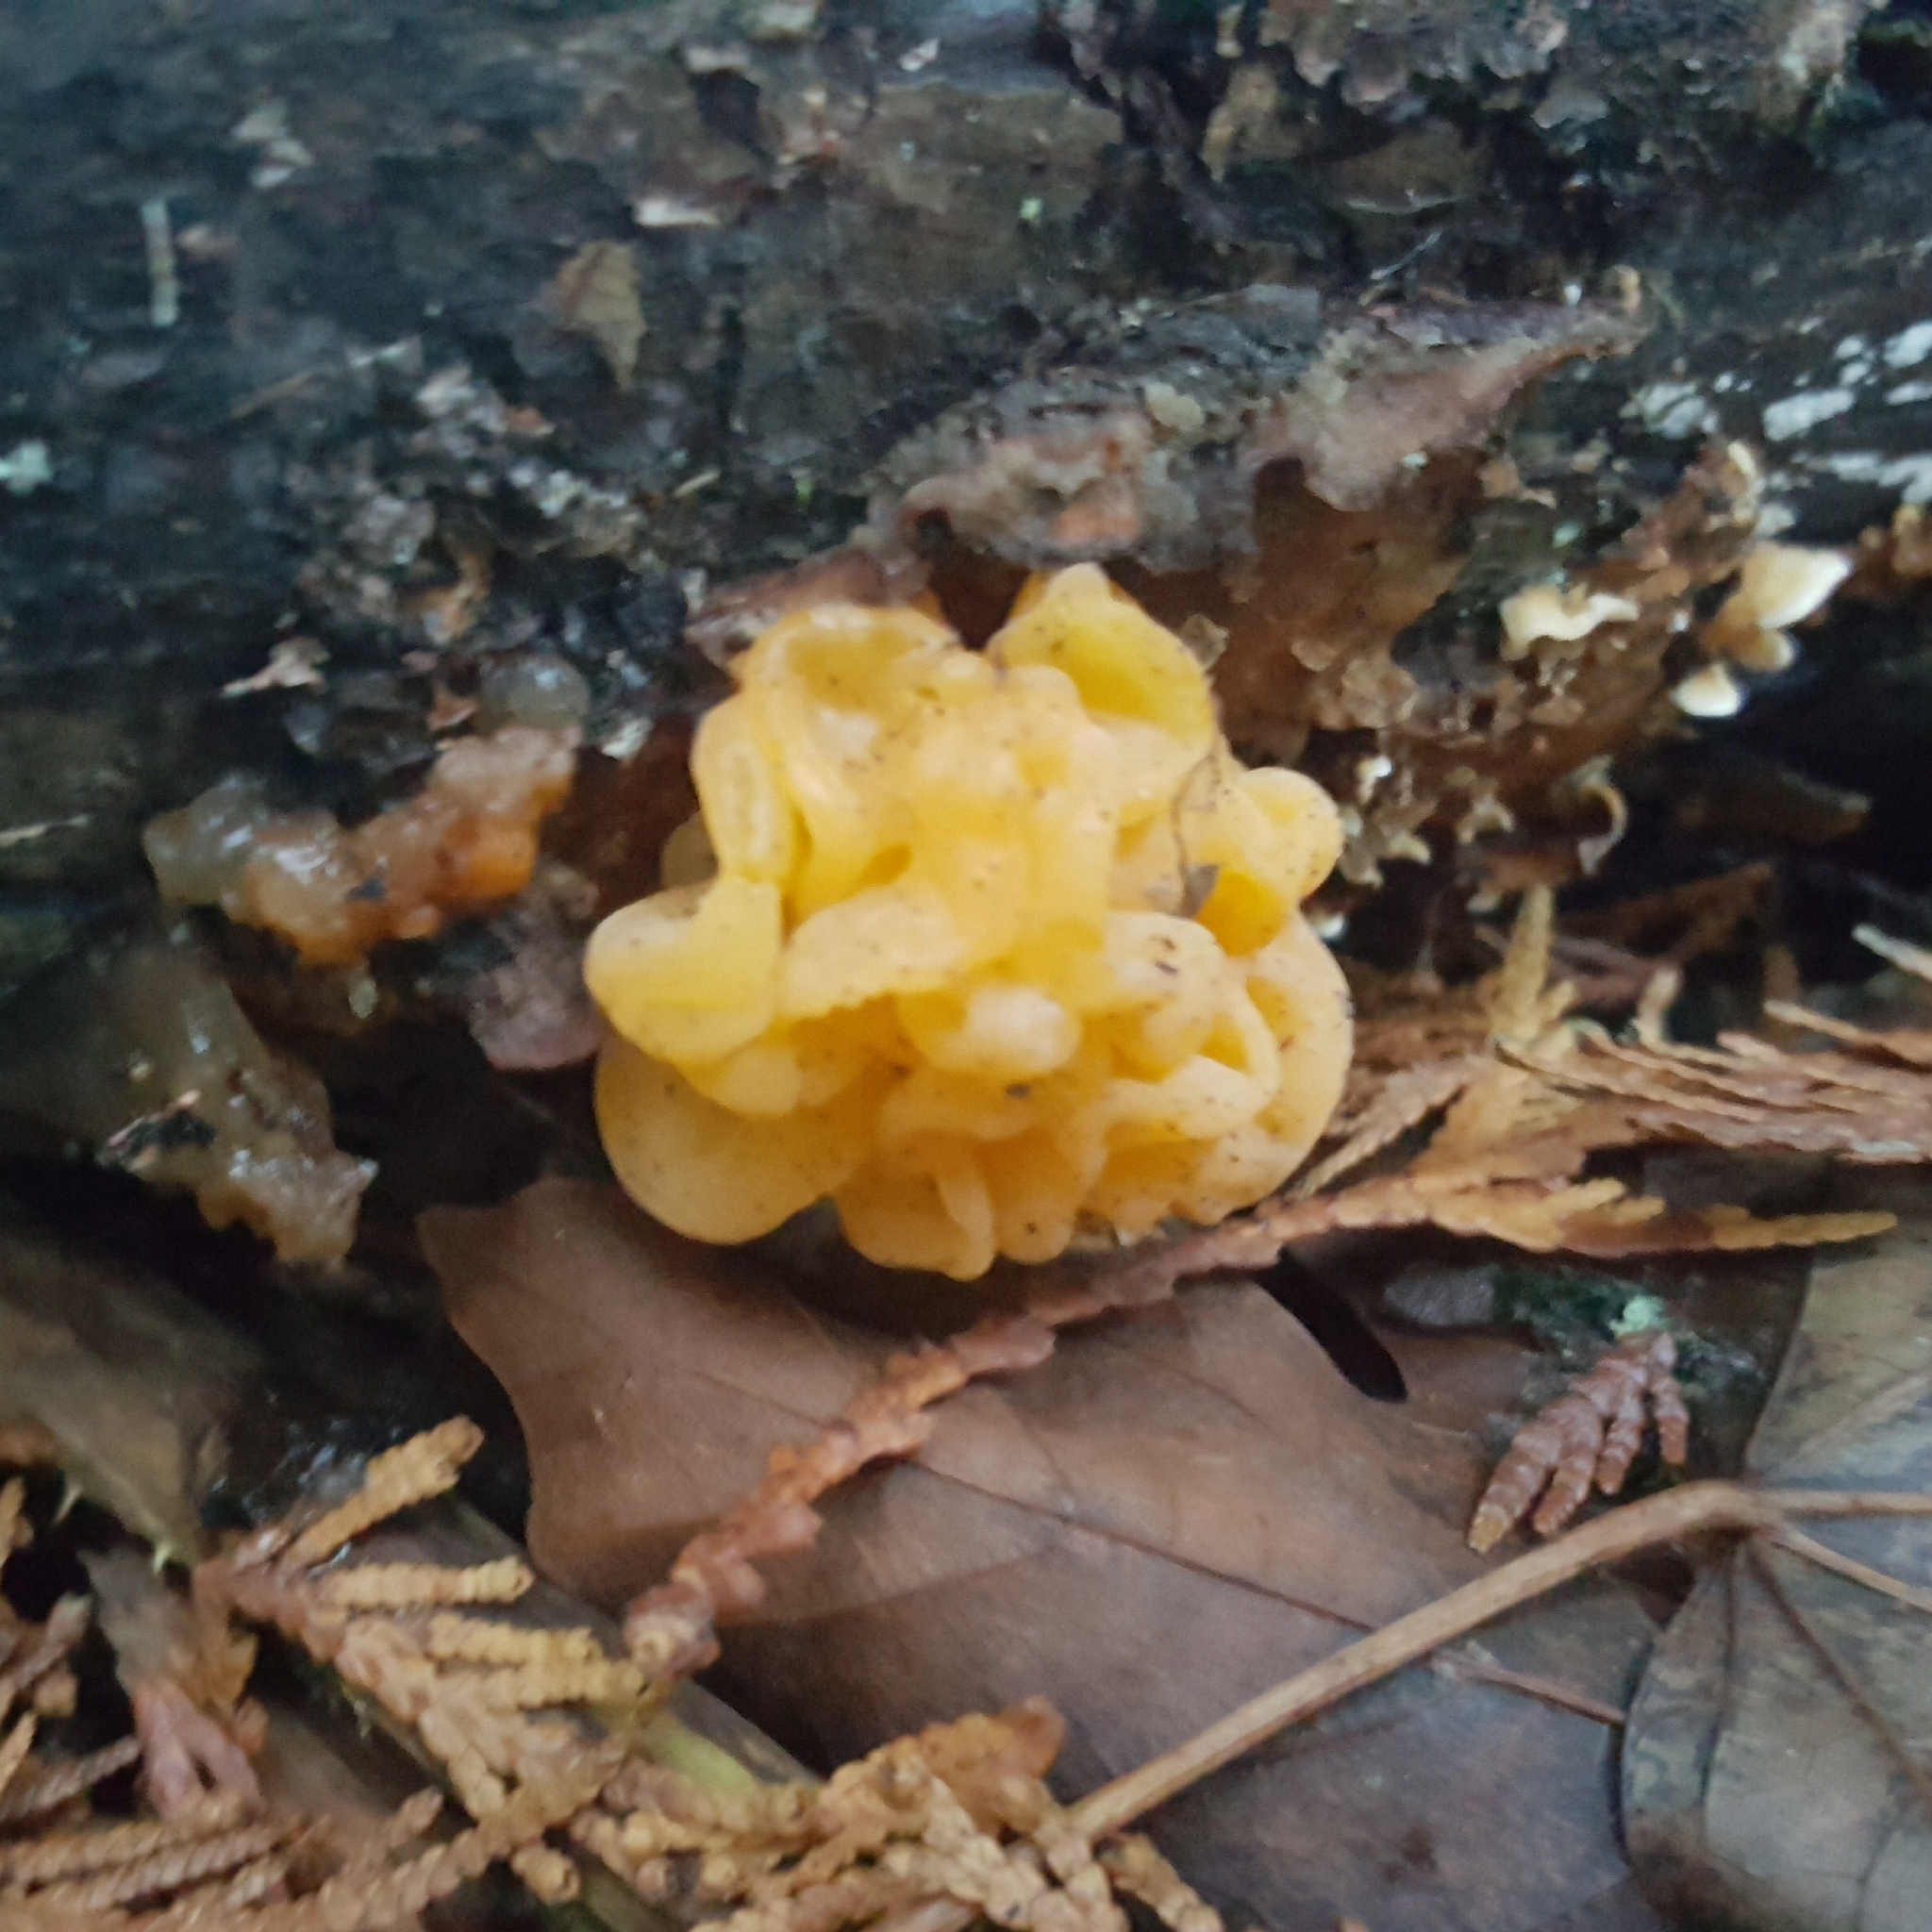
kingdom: Fungi
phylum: Basidiomycota
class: Dacrymycetes
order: Dacrymycetales
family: Dacrymycetaceae
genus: Dacrymyces
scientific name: Dacrymyces chrysospermus
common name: Orange jelly spot
